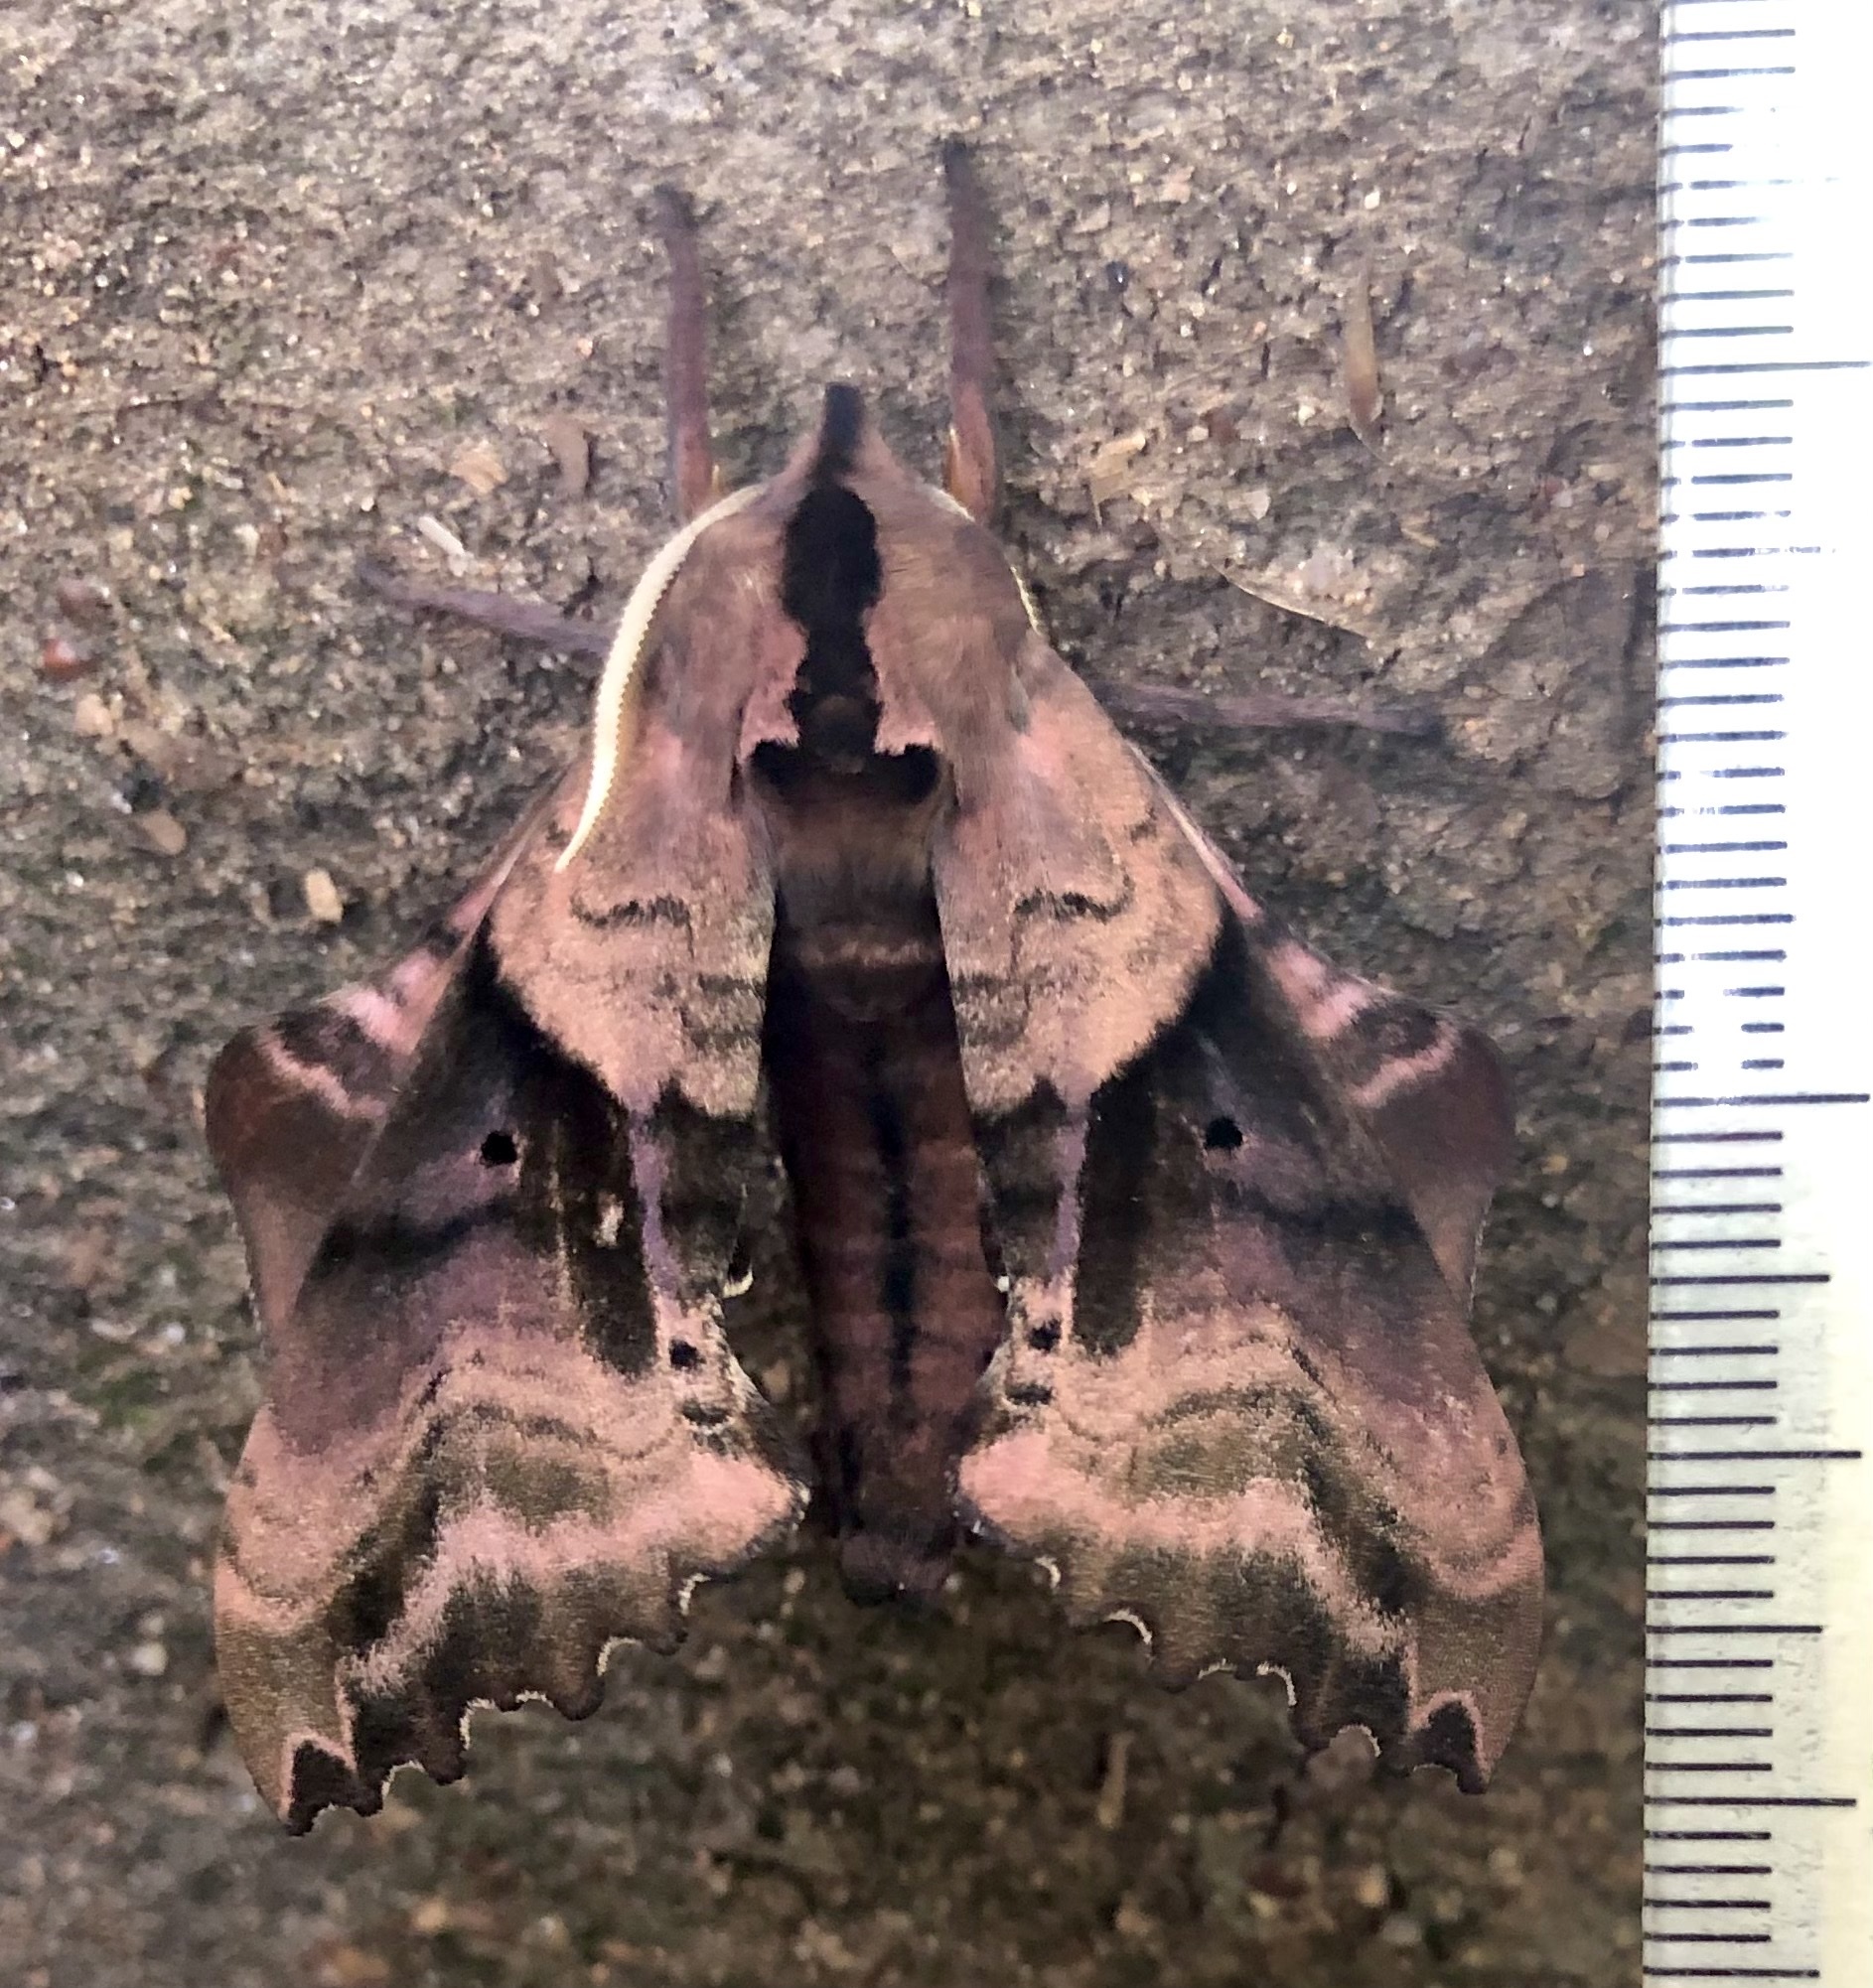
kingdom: Animalia
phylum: Arthropoda
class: Insecta
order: Lepidoptera
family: Sphingidae
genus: Paonias
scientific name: Paonias excaecata
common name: Blind-eyed sphinx
